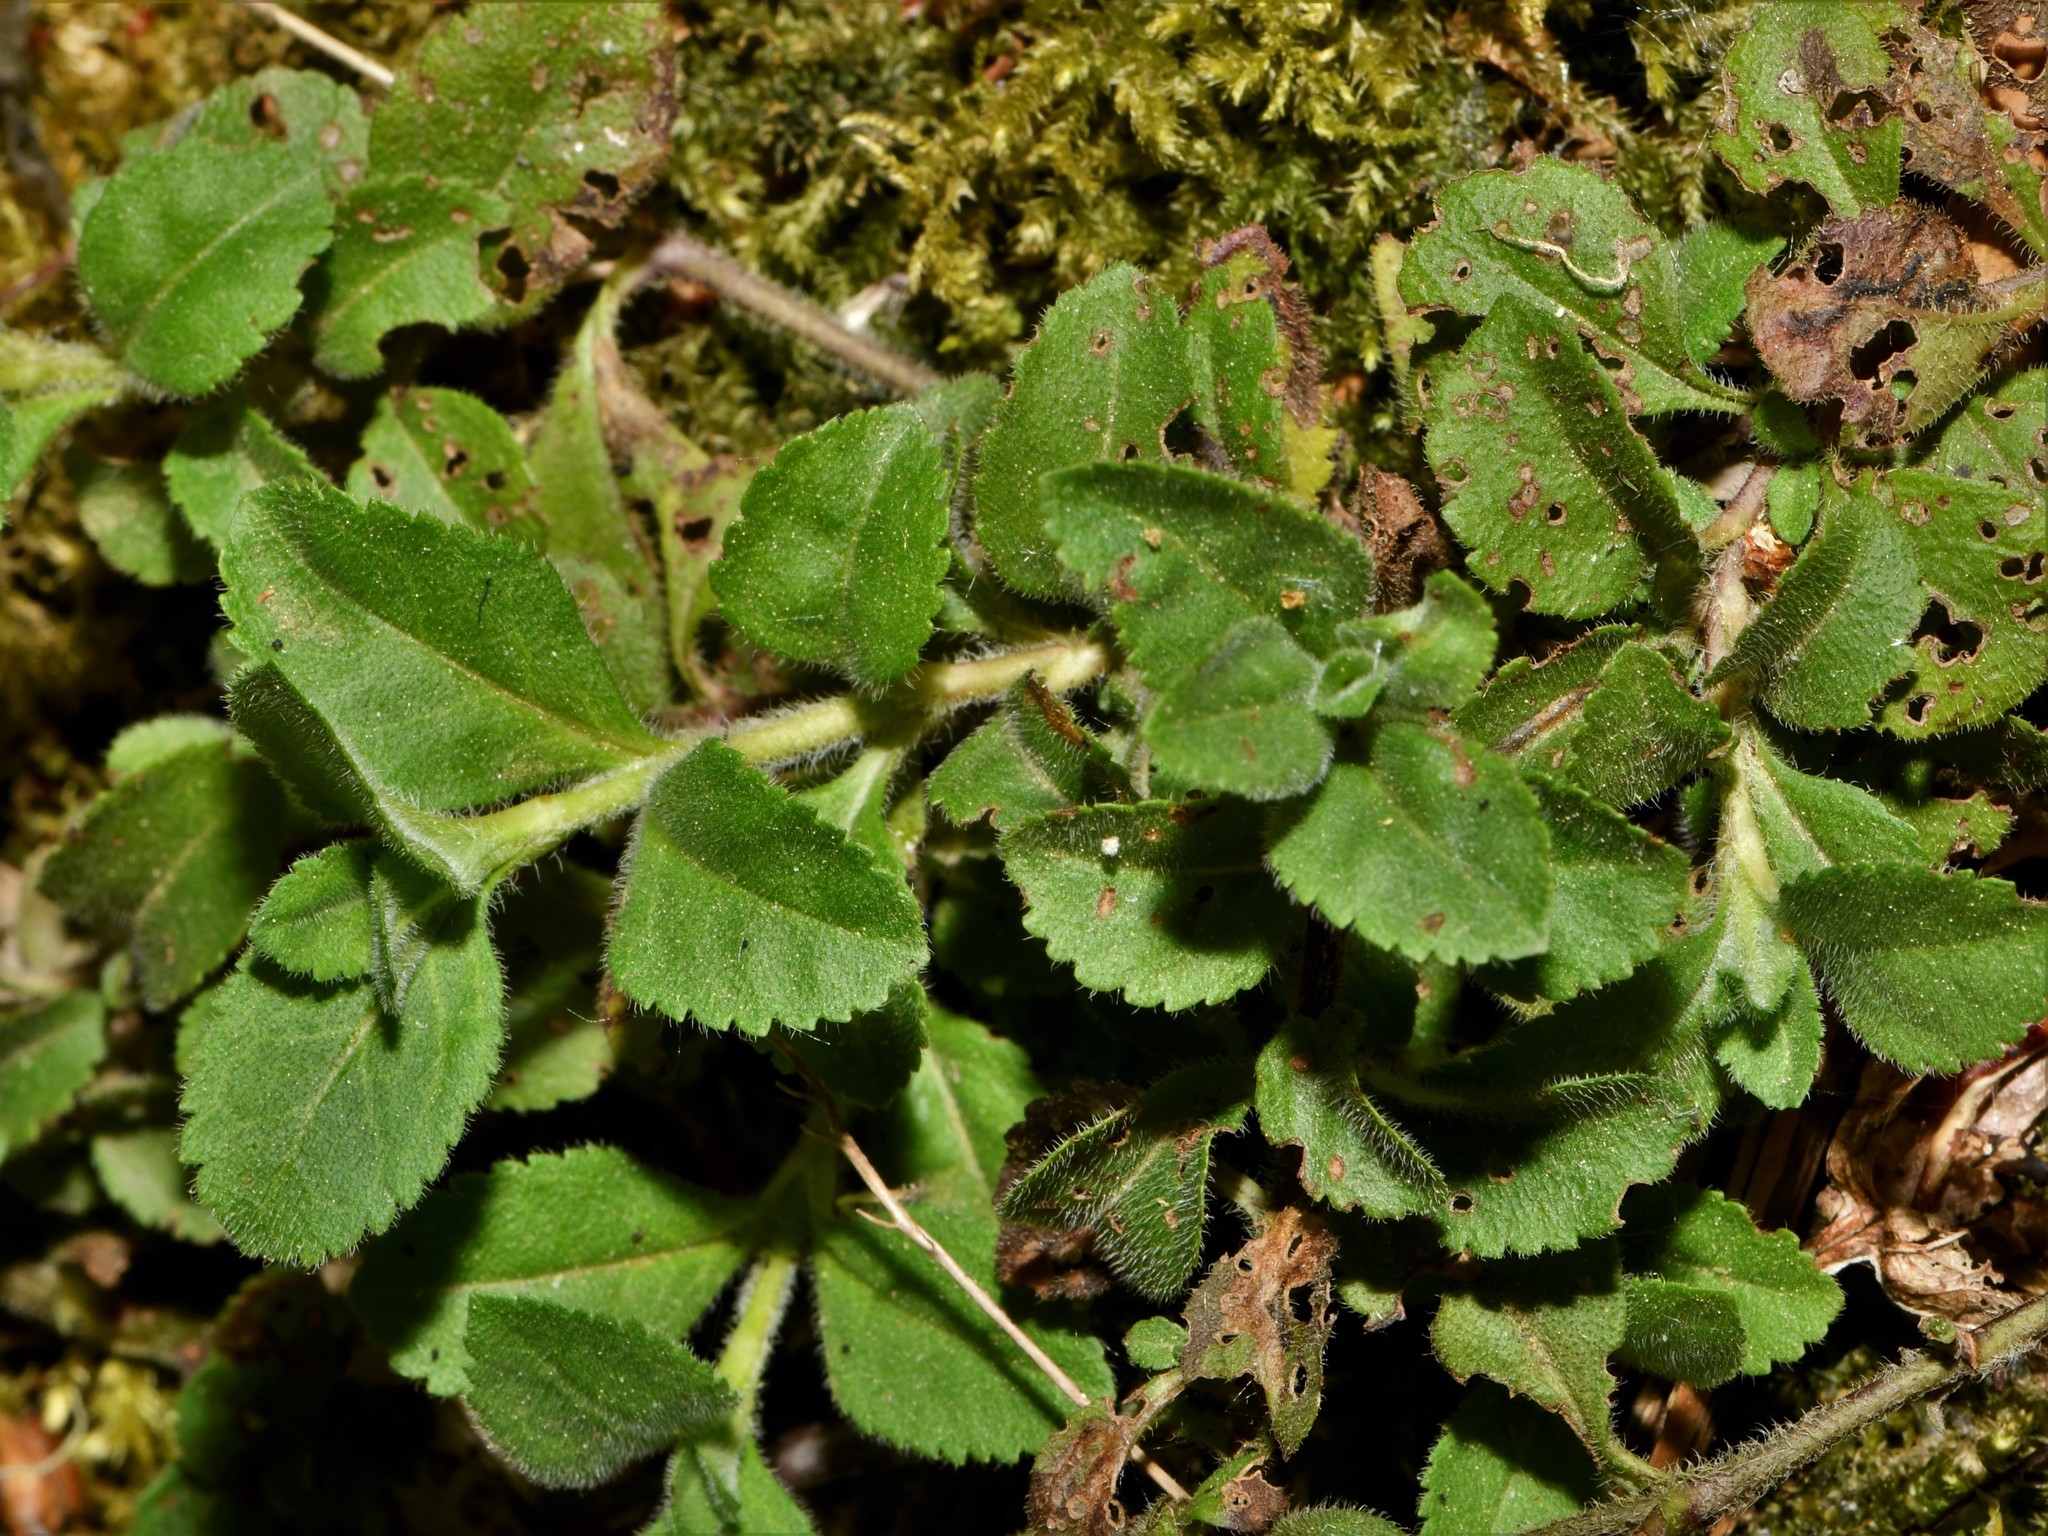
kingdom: Plantae
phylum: Tracheophyta
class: Magnoliopsida
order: Lamiales
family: Plantaginaceae
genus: Veronica
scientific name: Veronica officinalis
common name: Common speedwell
